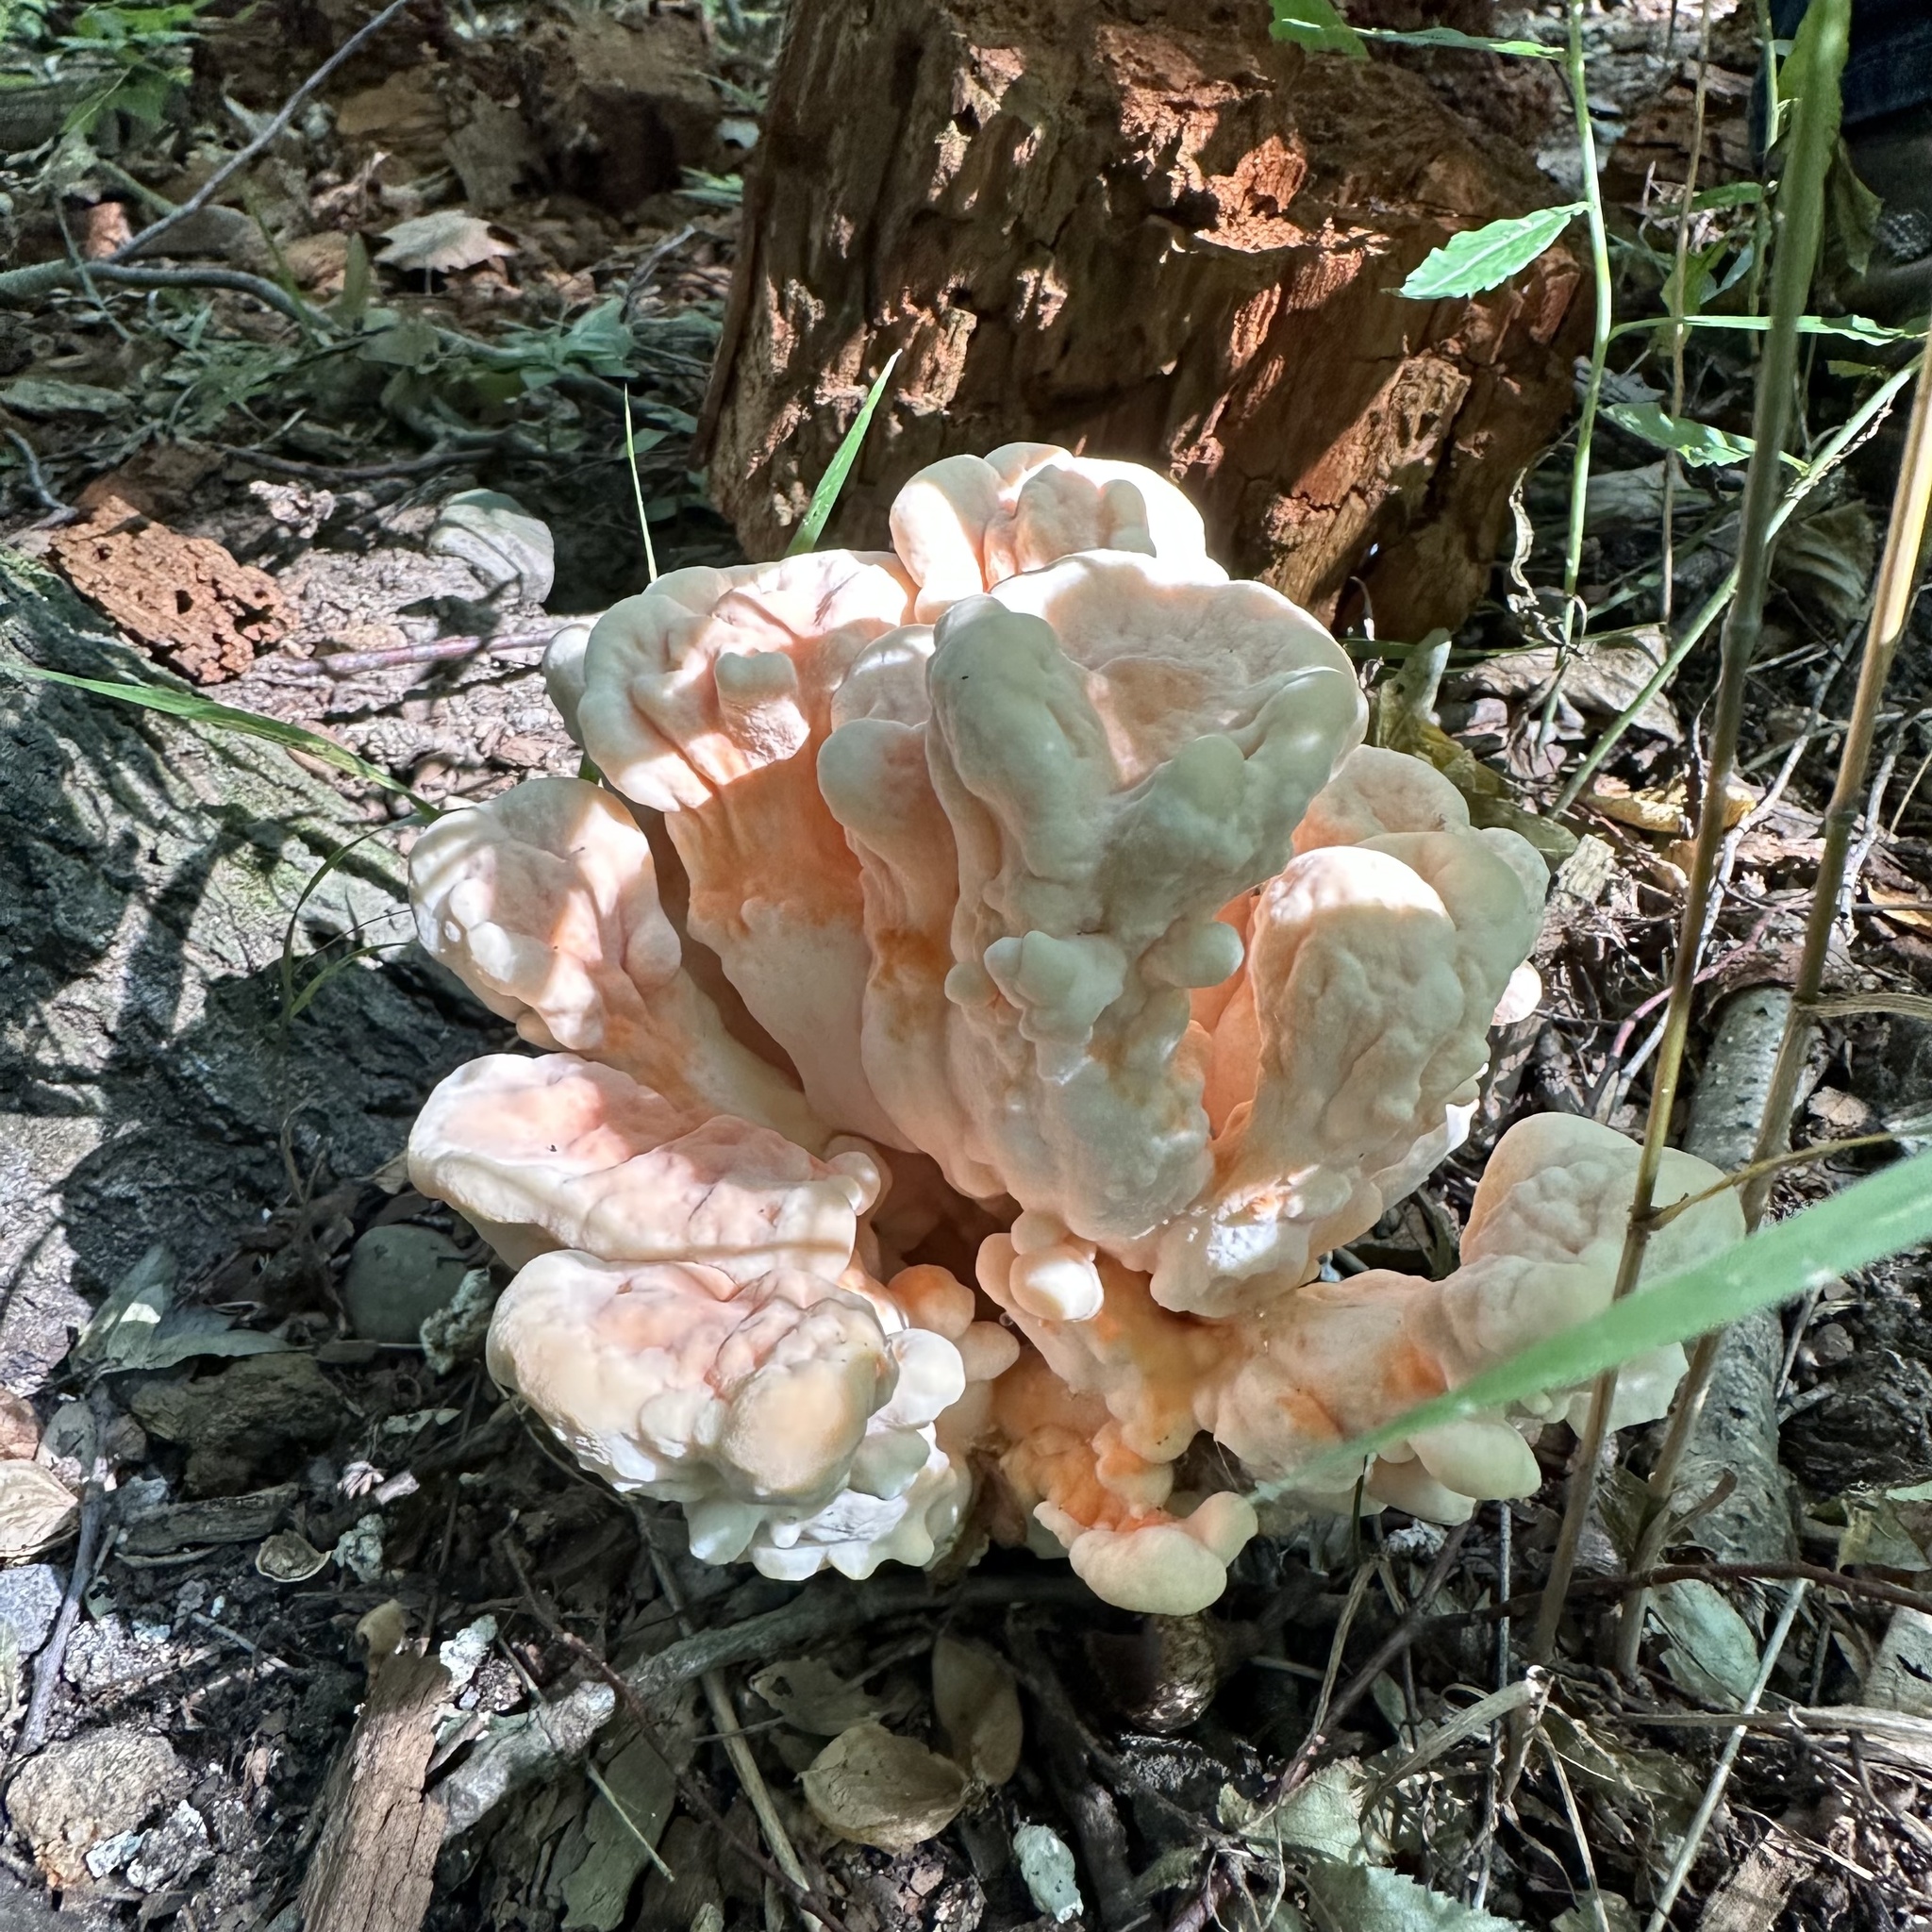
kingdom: Fungi
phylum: Basidiomycota
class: Agaricomycetes
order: Polyporales
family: Laetiporaceae
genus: Laetiporus
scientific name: Laetiporus sulphureus
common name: Chicken of the woods
